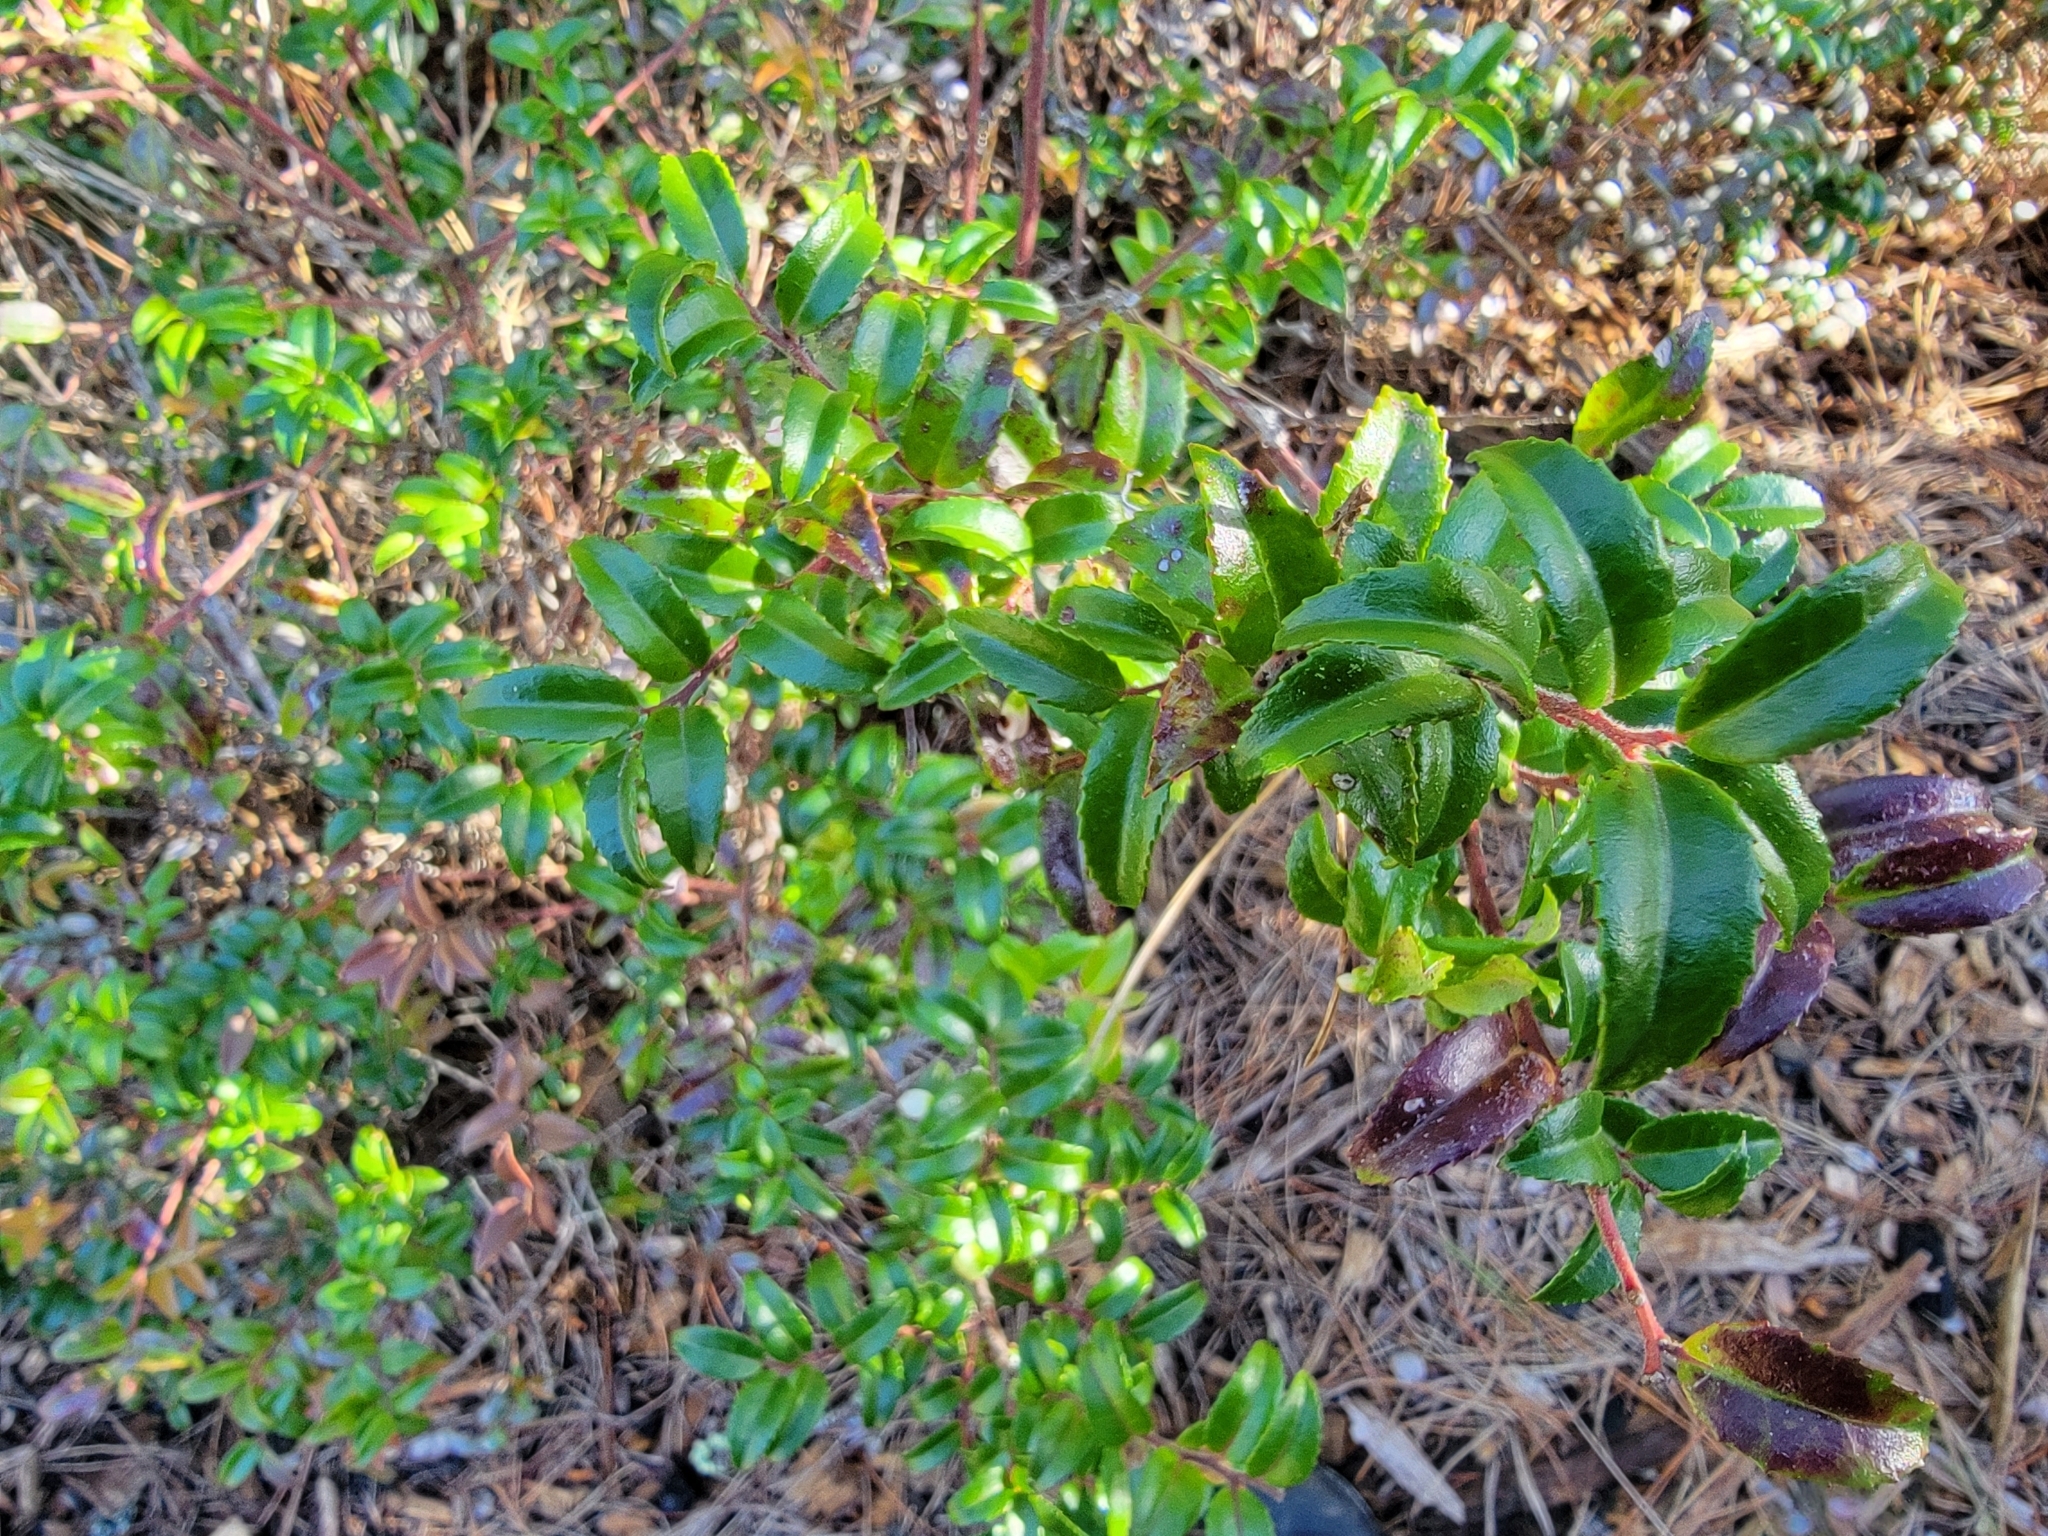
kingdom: Plantae
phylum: Tracheophyta
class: Magnoliopsida
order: Ericales
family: Ericaceae
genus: Vaccinium
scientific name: Vaccinium ovatum
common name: California-huckleberry
